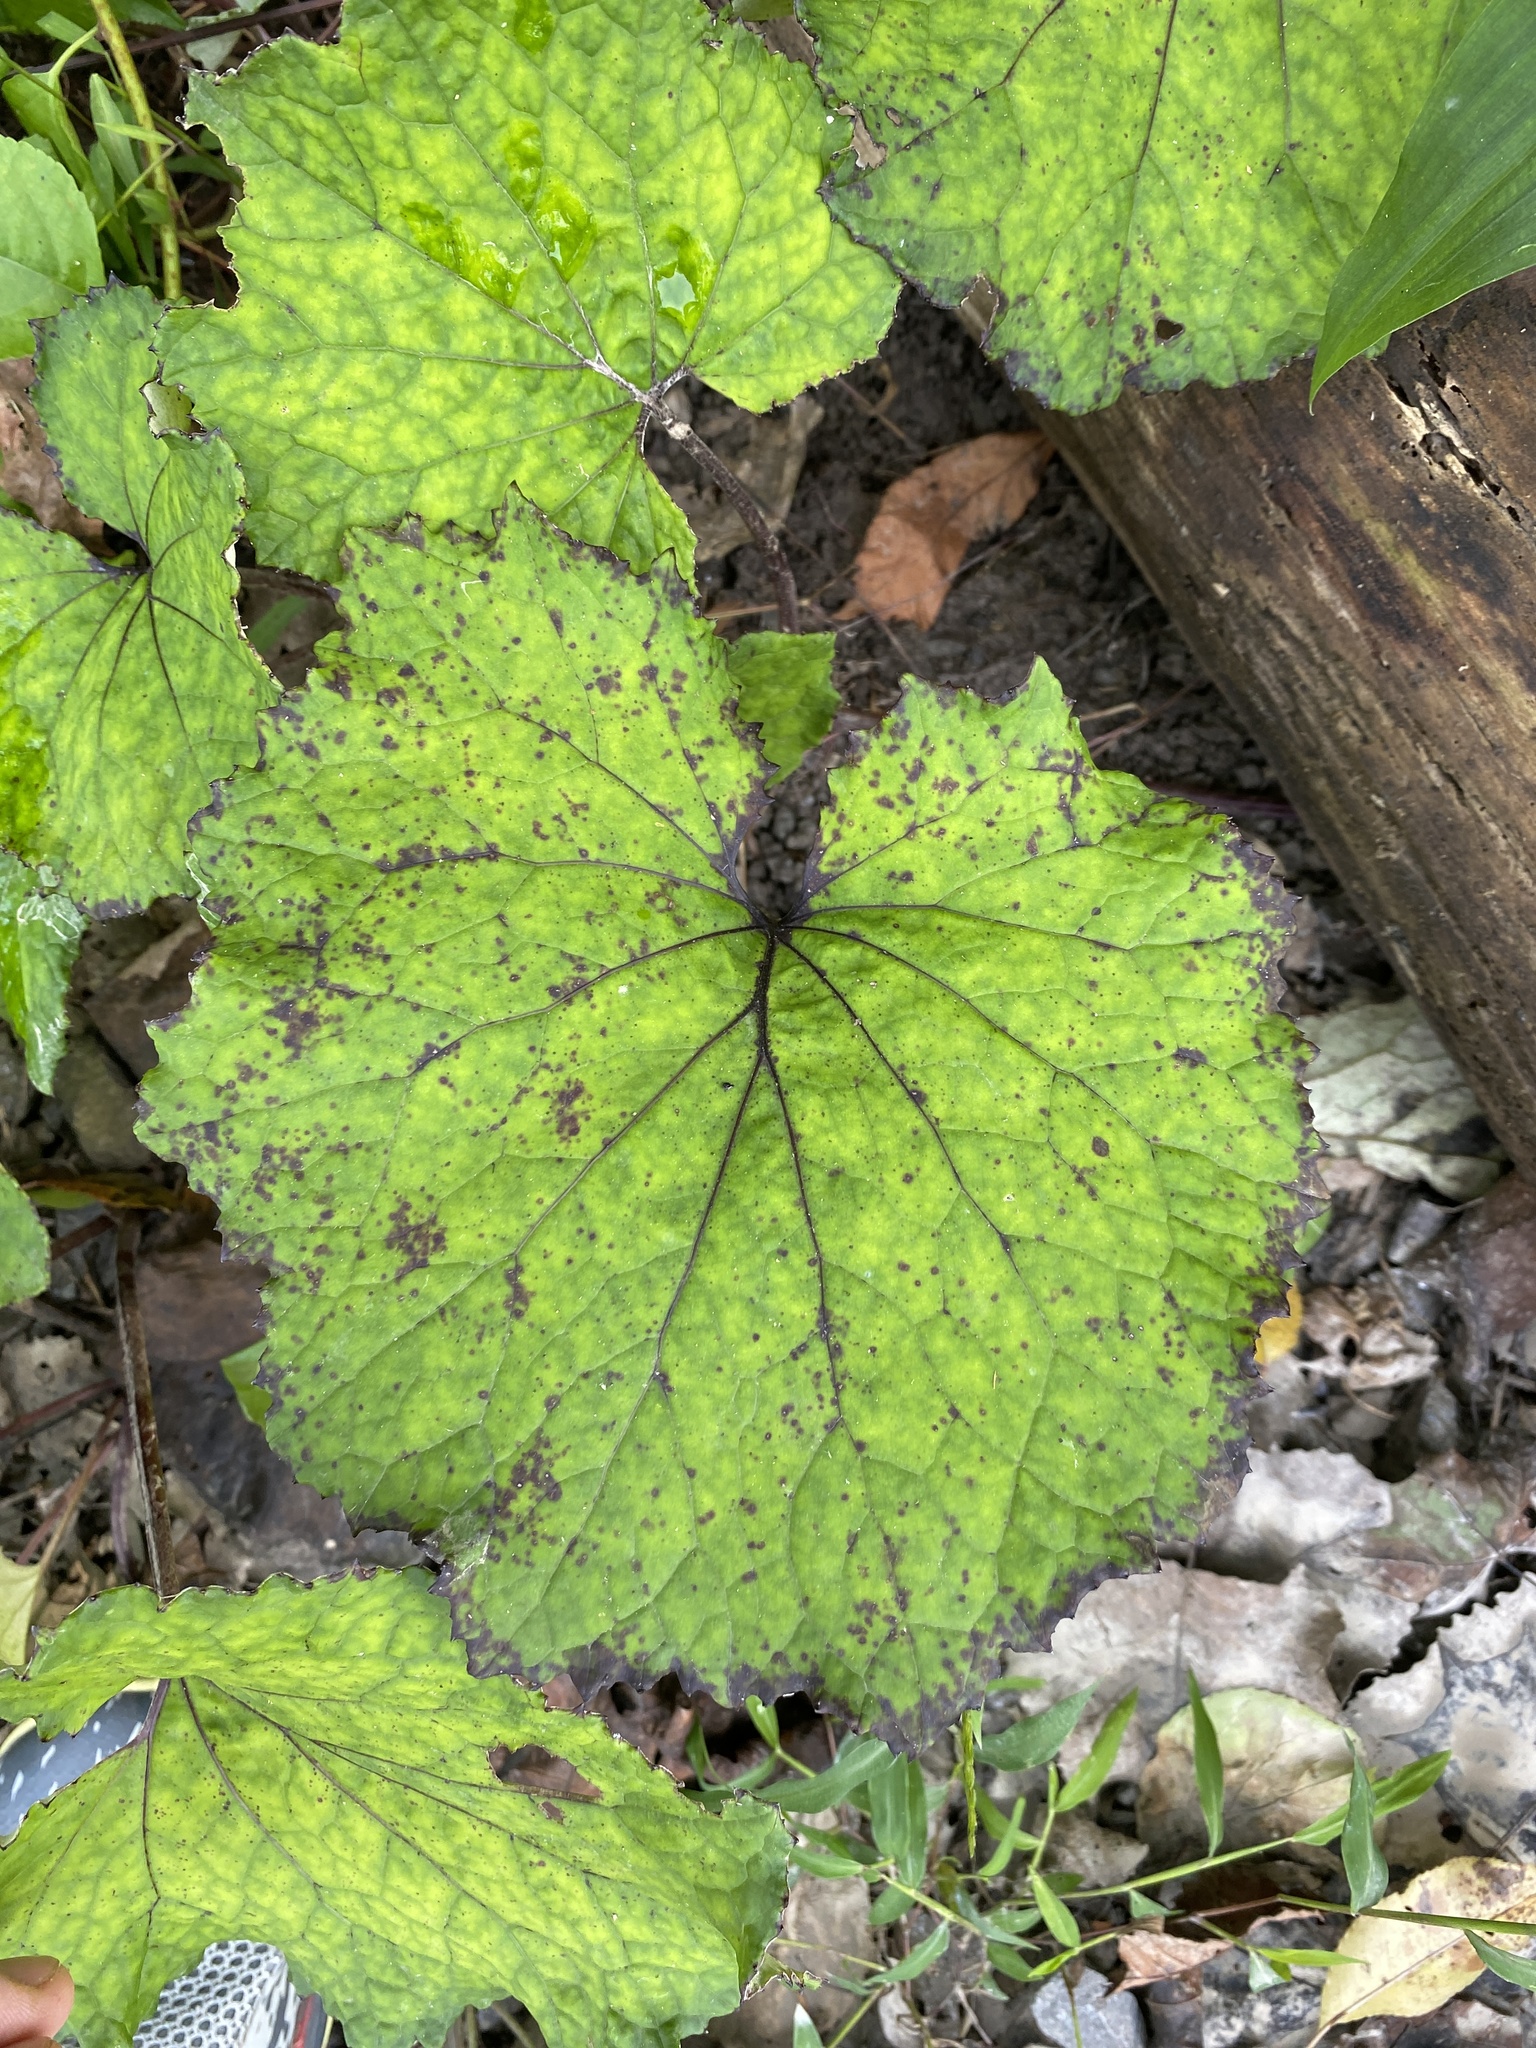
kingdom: Plantae
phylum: Tracheophyta
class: Magnoliopsida
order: Asterales
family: Asteraceae
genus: Tussilago
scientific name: Tussilago farfara
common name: Coltsfoot
